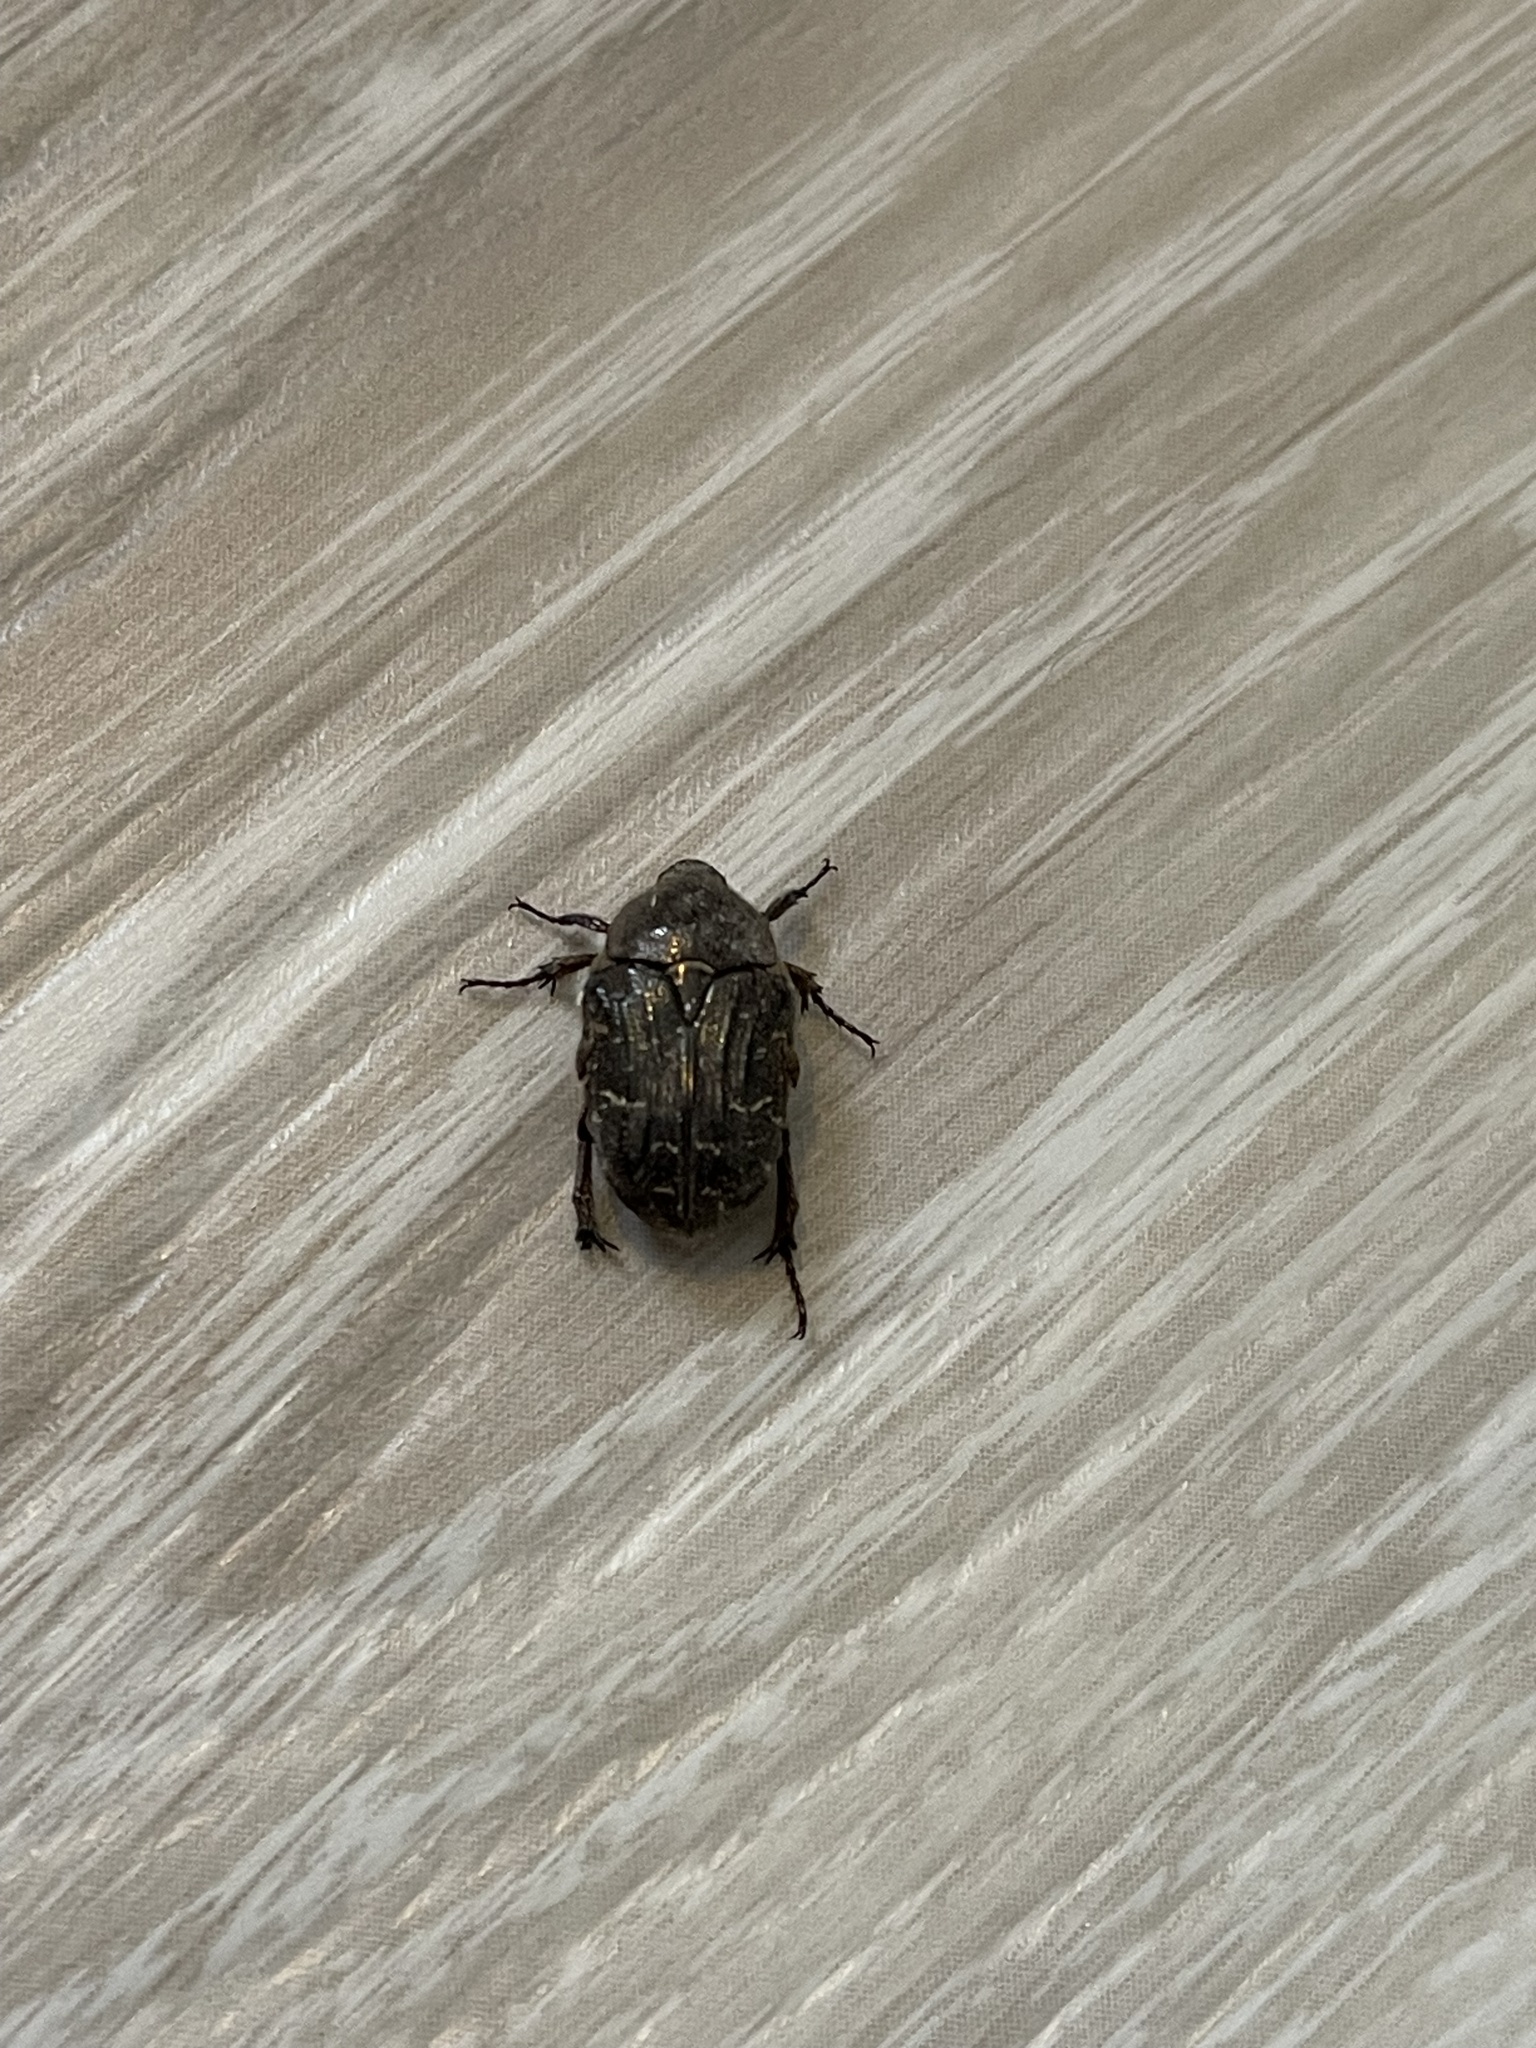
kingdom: Animalia
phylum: Arthropoda
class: Insecta
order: Coleoptera
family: Scarabaeidae
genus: Euphoria
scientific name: Euphoria sepulcralis
